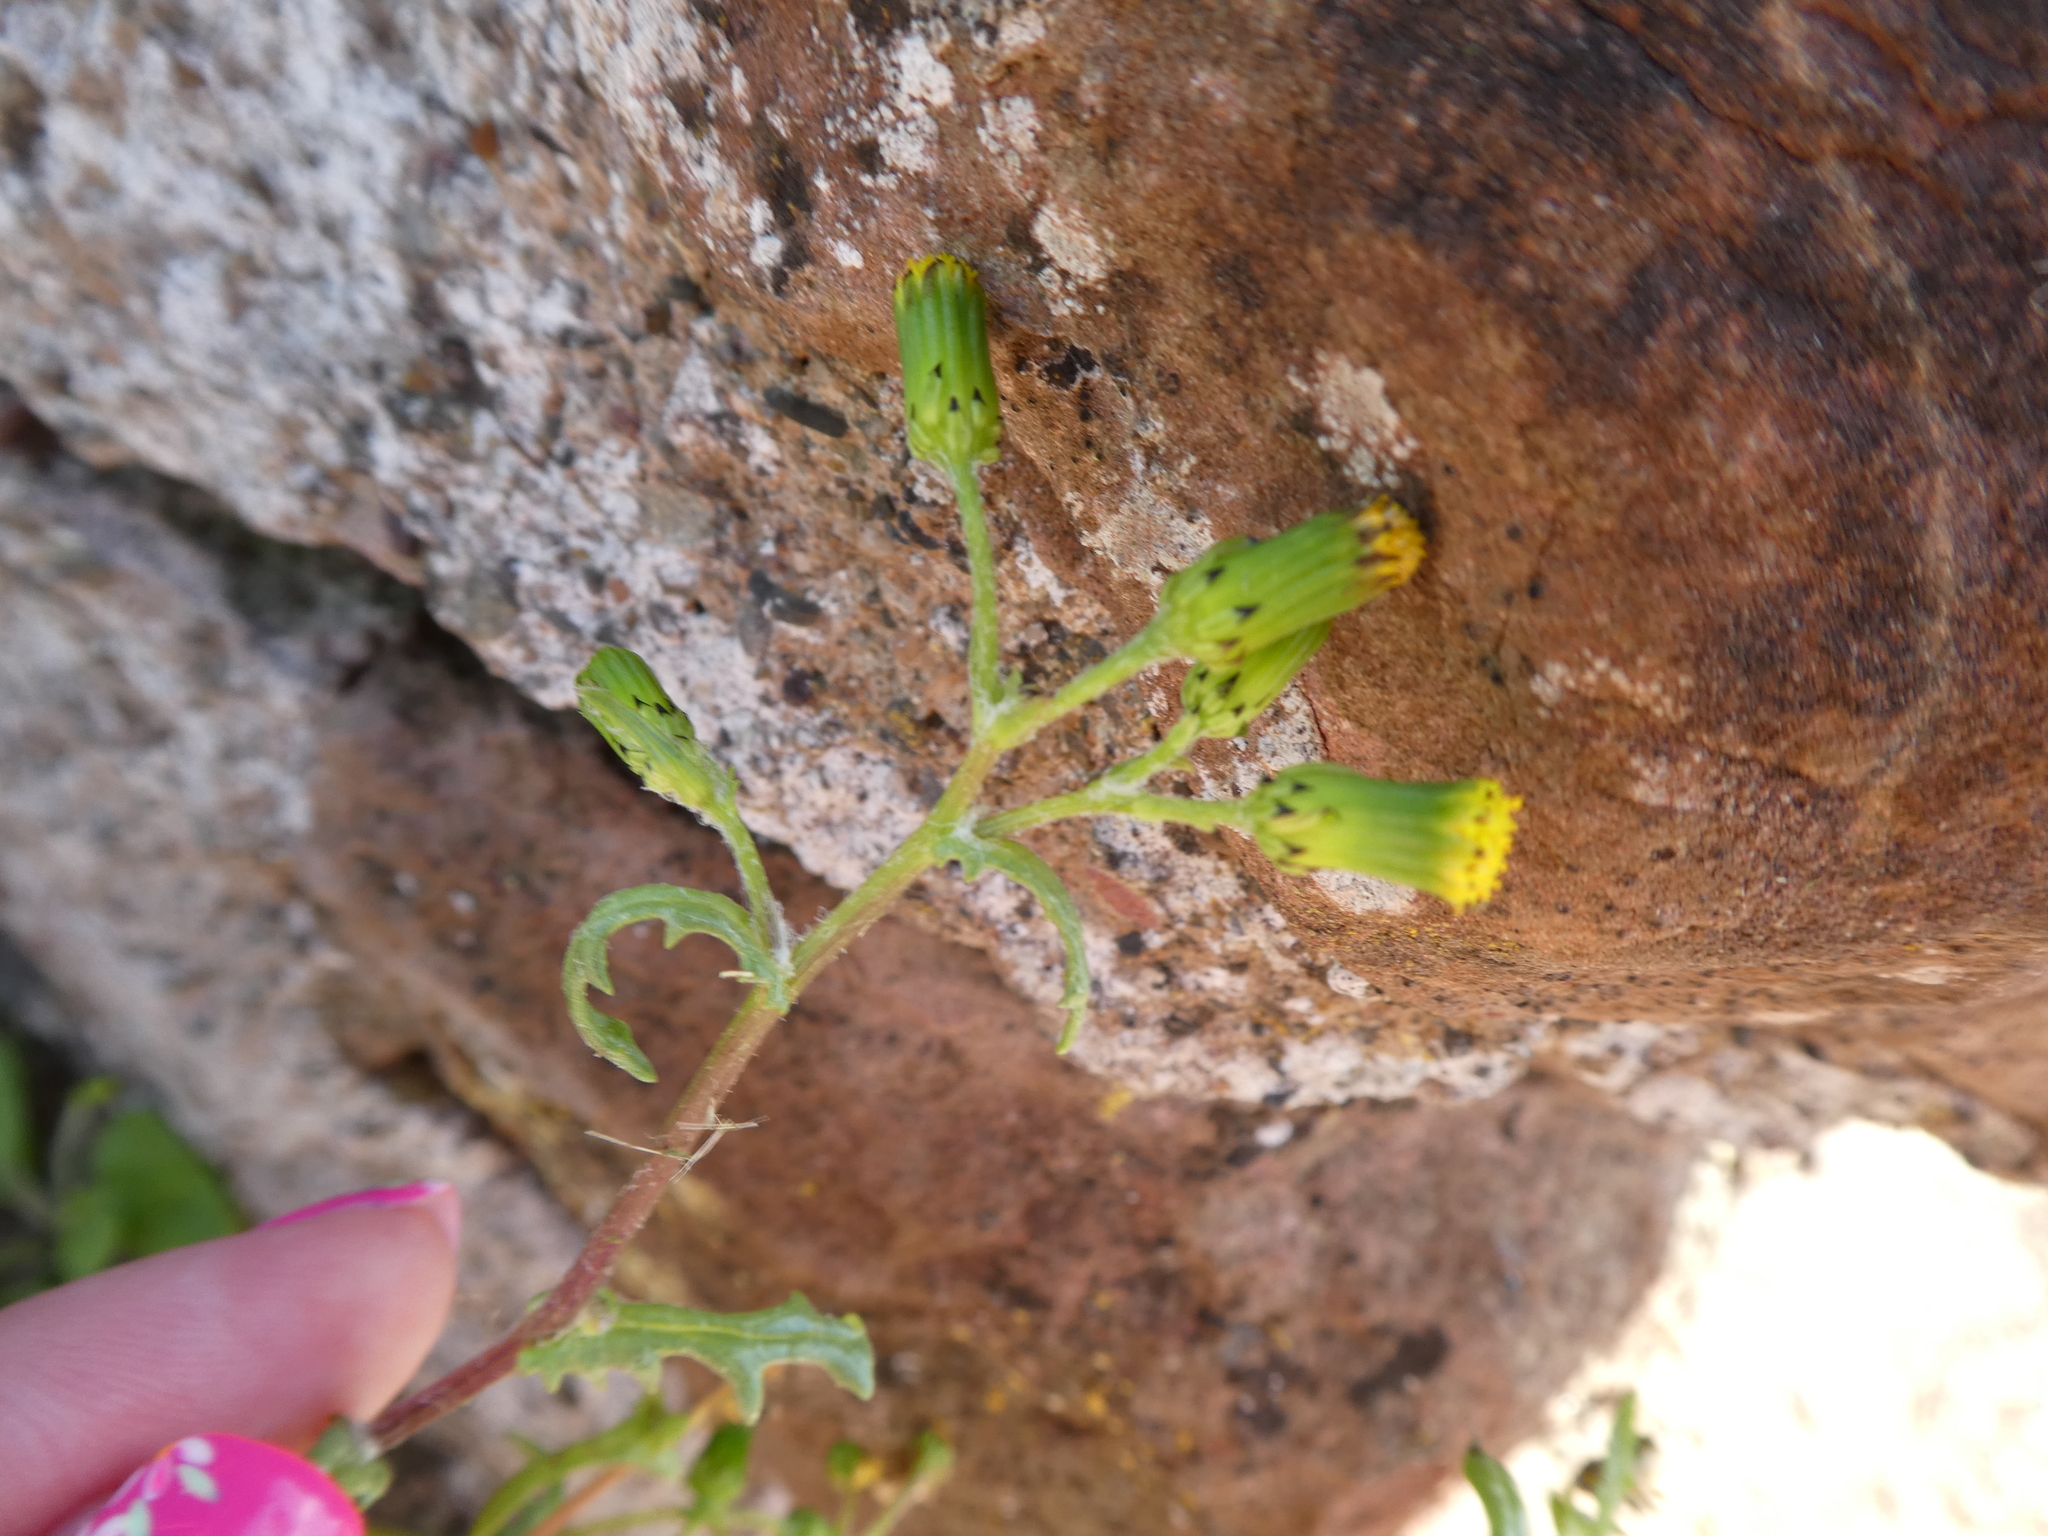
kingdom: Plantae
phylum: Tracheophyta
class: Magnoliopsida
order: Asterales
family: Asteraceae
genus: Senecio
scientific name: Senecio vulgaris
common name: Old-man-in-the-spring
